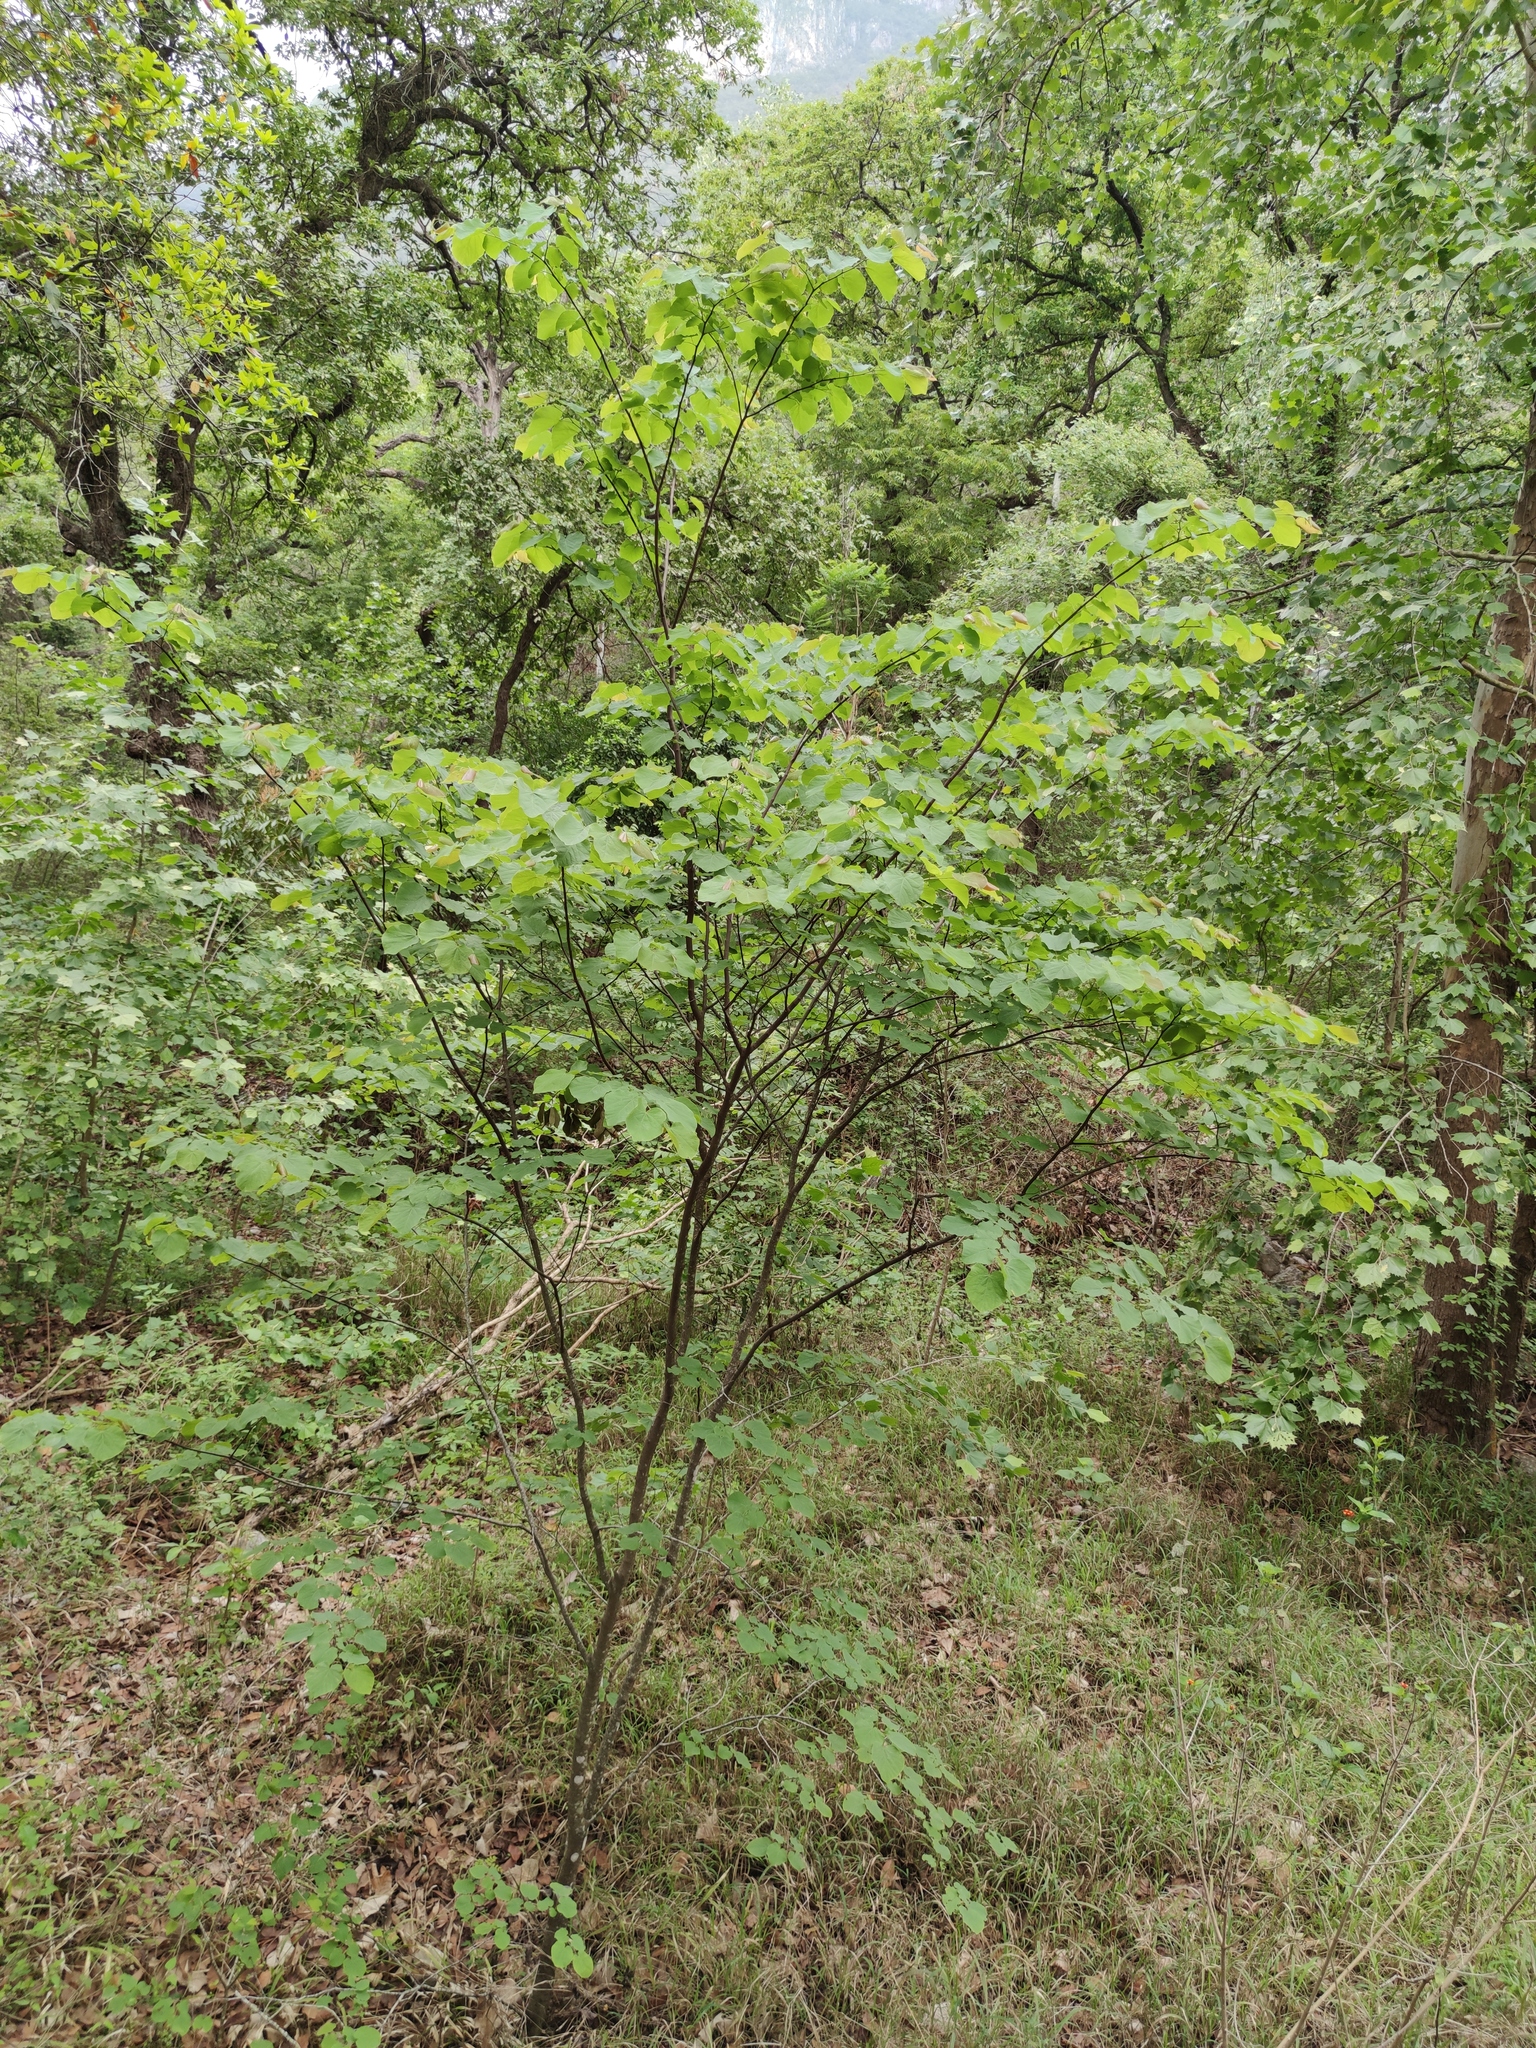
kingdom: Plantae
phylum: Tracheophyta
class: Magnoliopsida
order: Fabales
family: Fabaceae
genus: Cercis
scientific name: Cercis canadensis
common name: Eastern redbud
